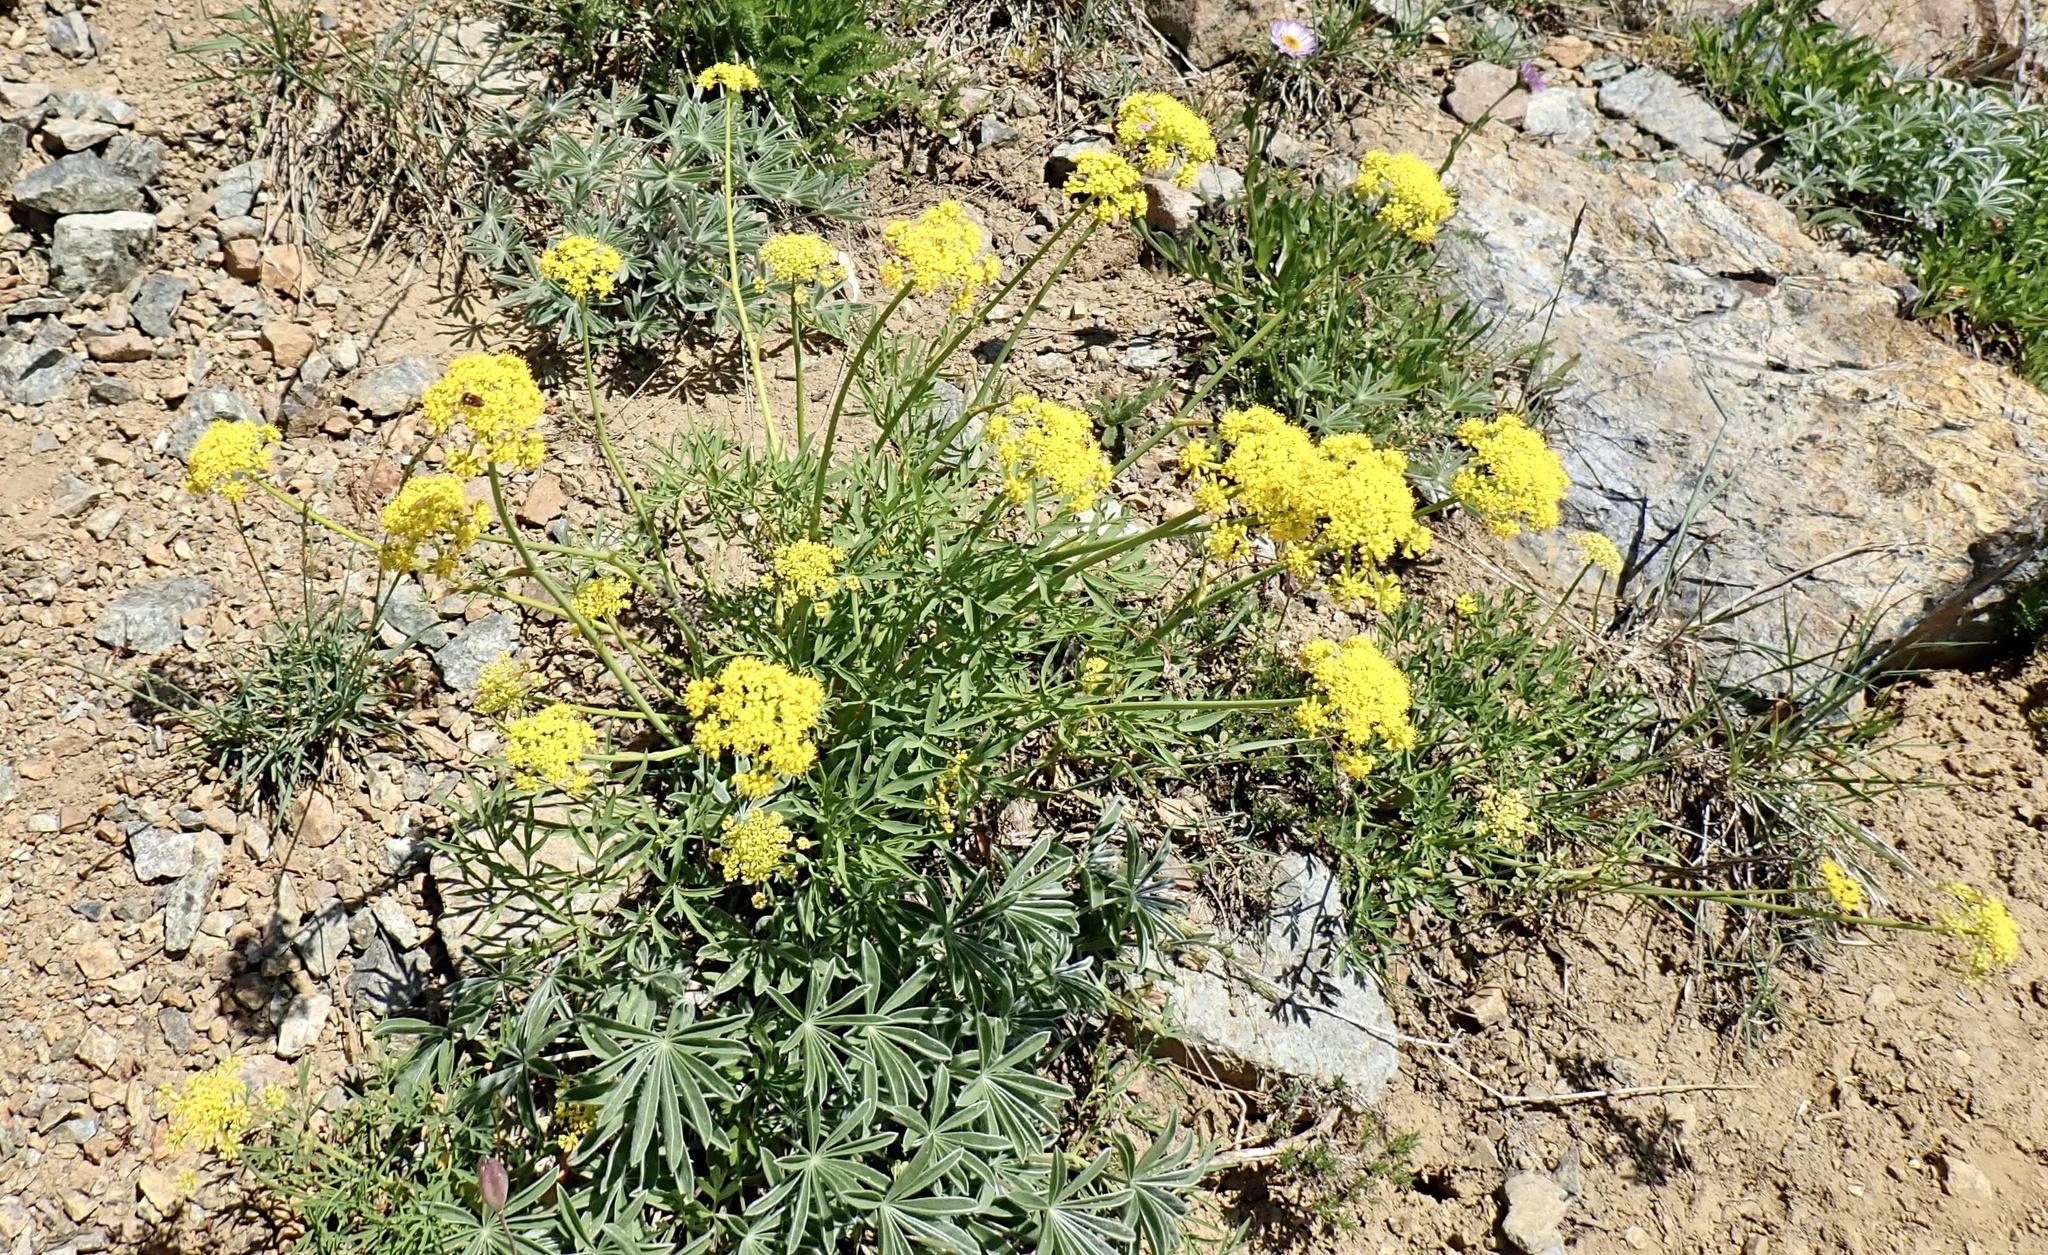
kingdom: Plantae
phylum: Tracheophyta
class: Magnoliopsida
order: Apiales
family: Apiaceae
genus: Lomatium
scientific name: Lomatium brandegeei
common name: Brandegee's desert-parsley
